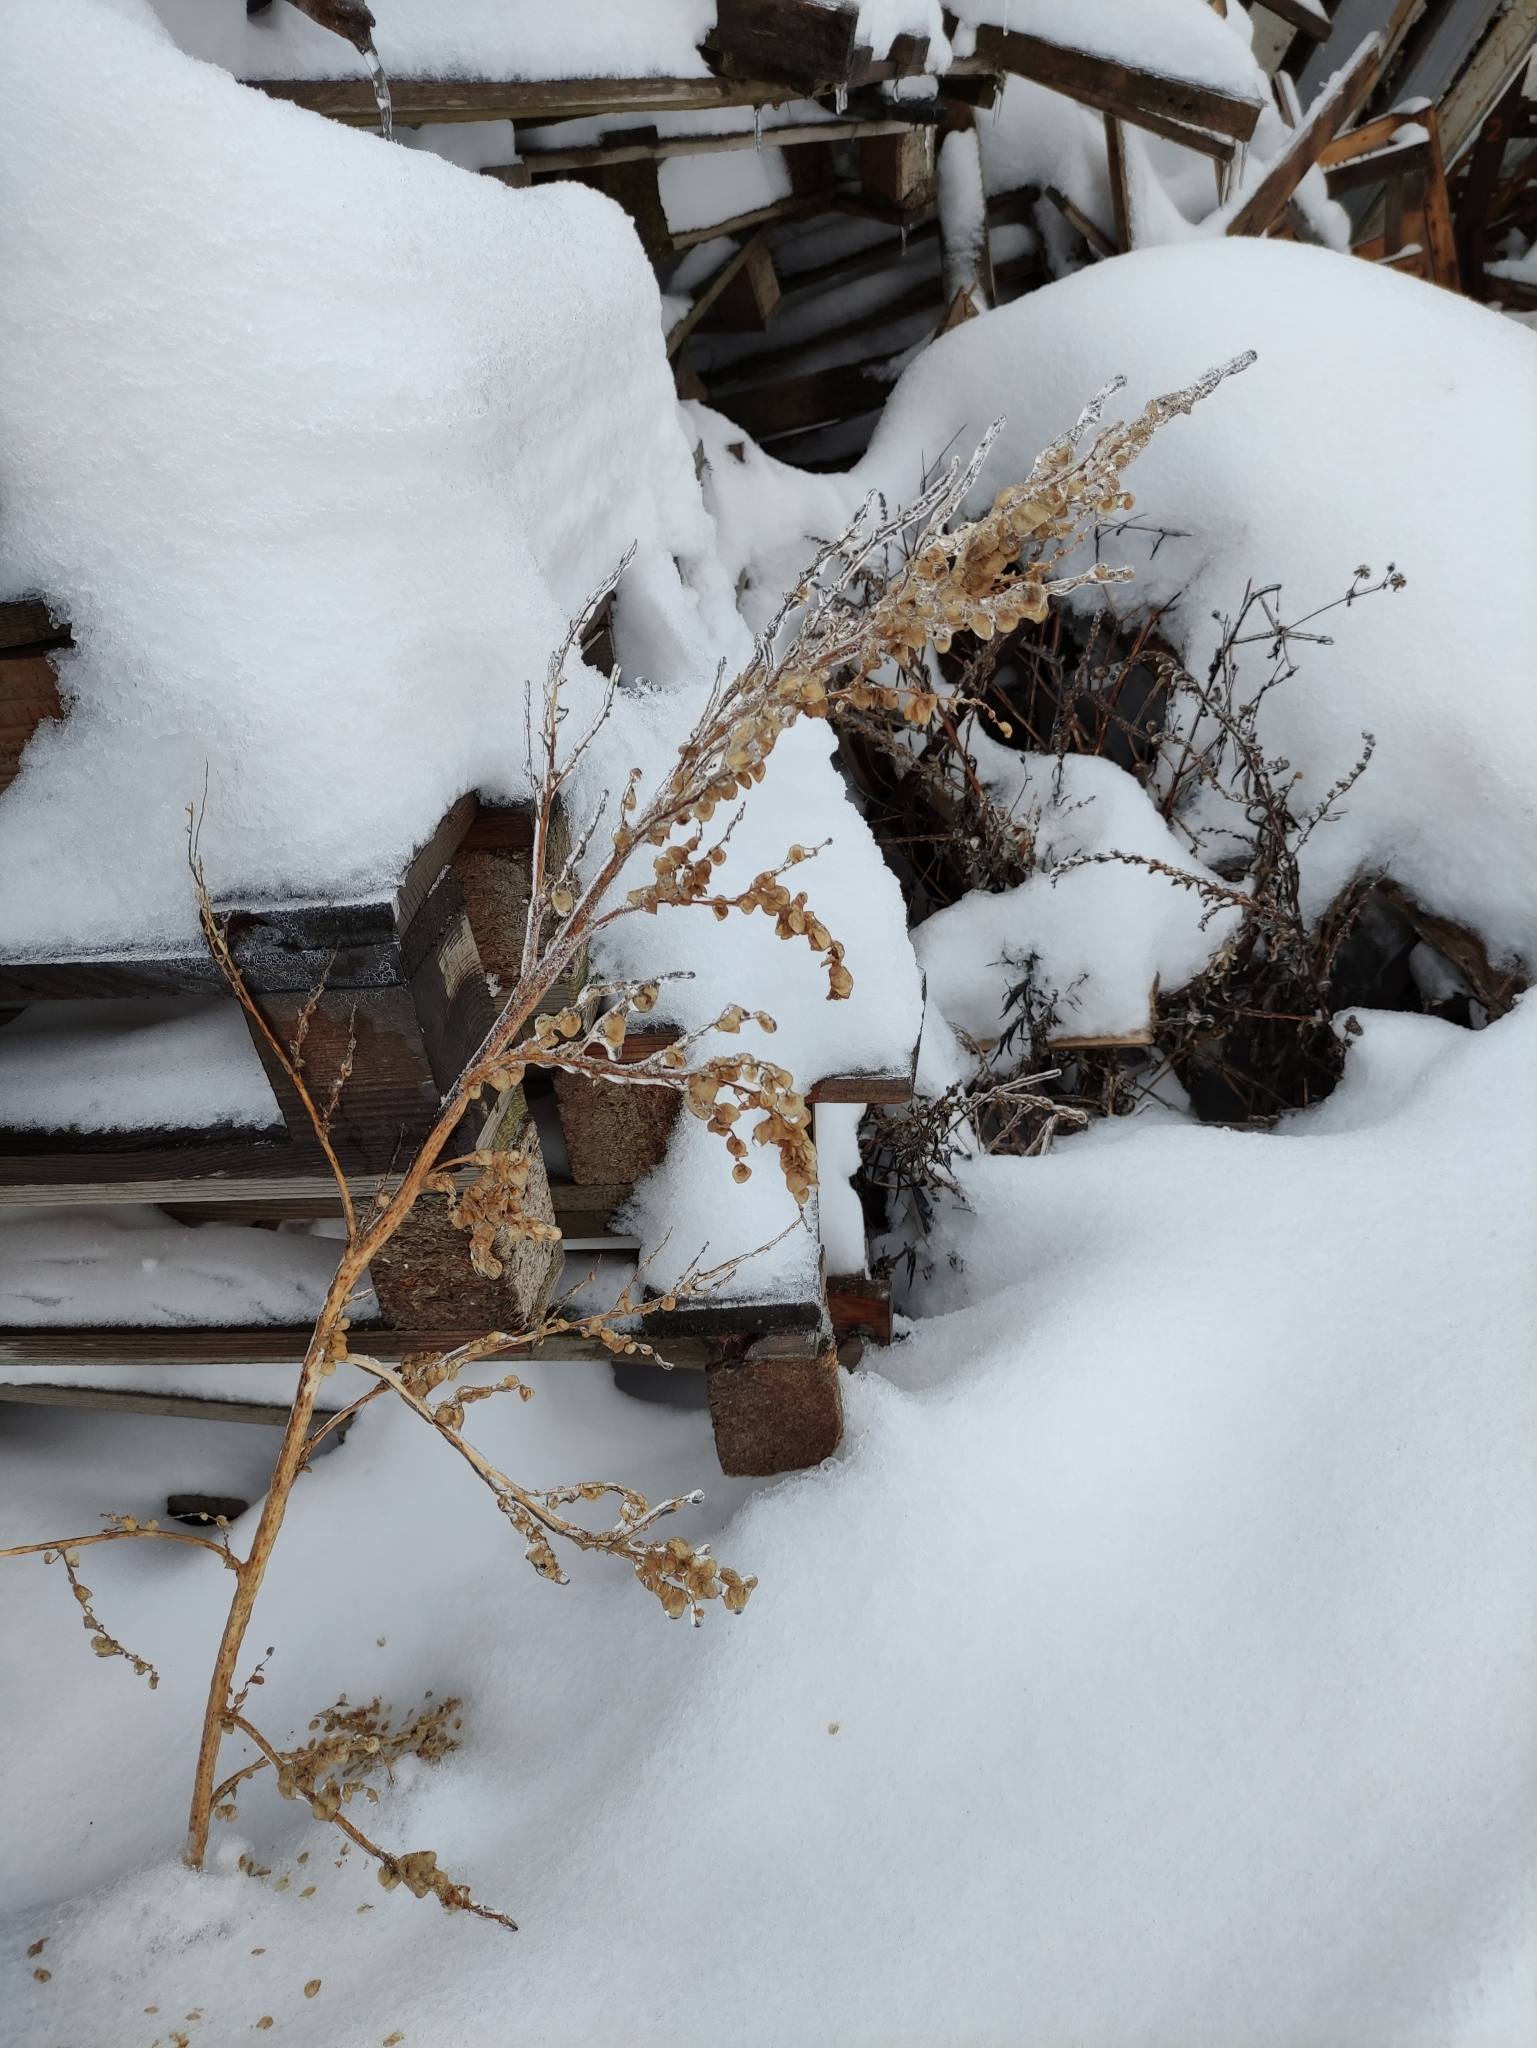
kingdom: Plantae
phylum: Tracheophyta
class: Magnoliopsida
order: Caryophyllales
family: Amaranthaceae
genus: Atriplex
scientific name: Atriplex sagittata
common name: Purple orache
